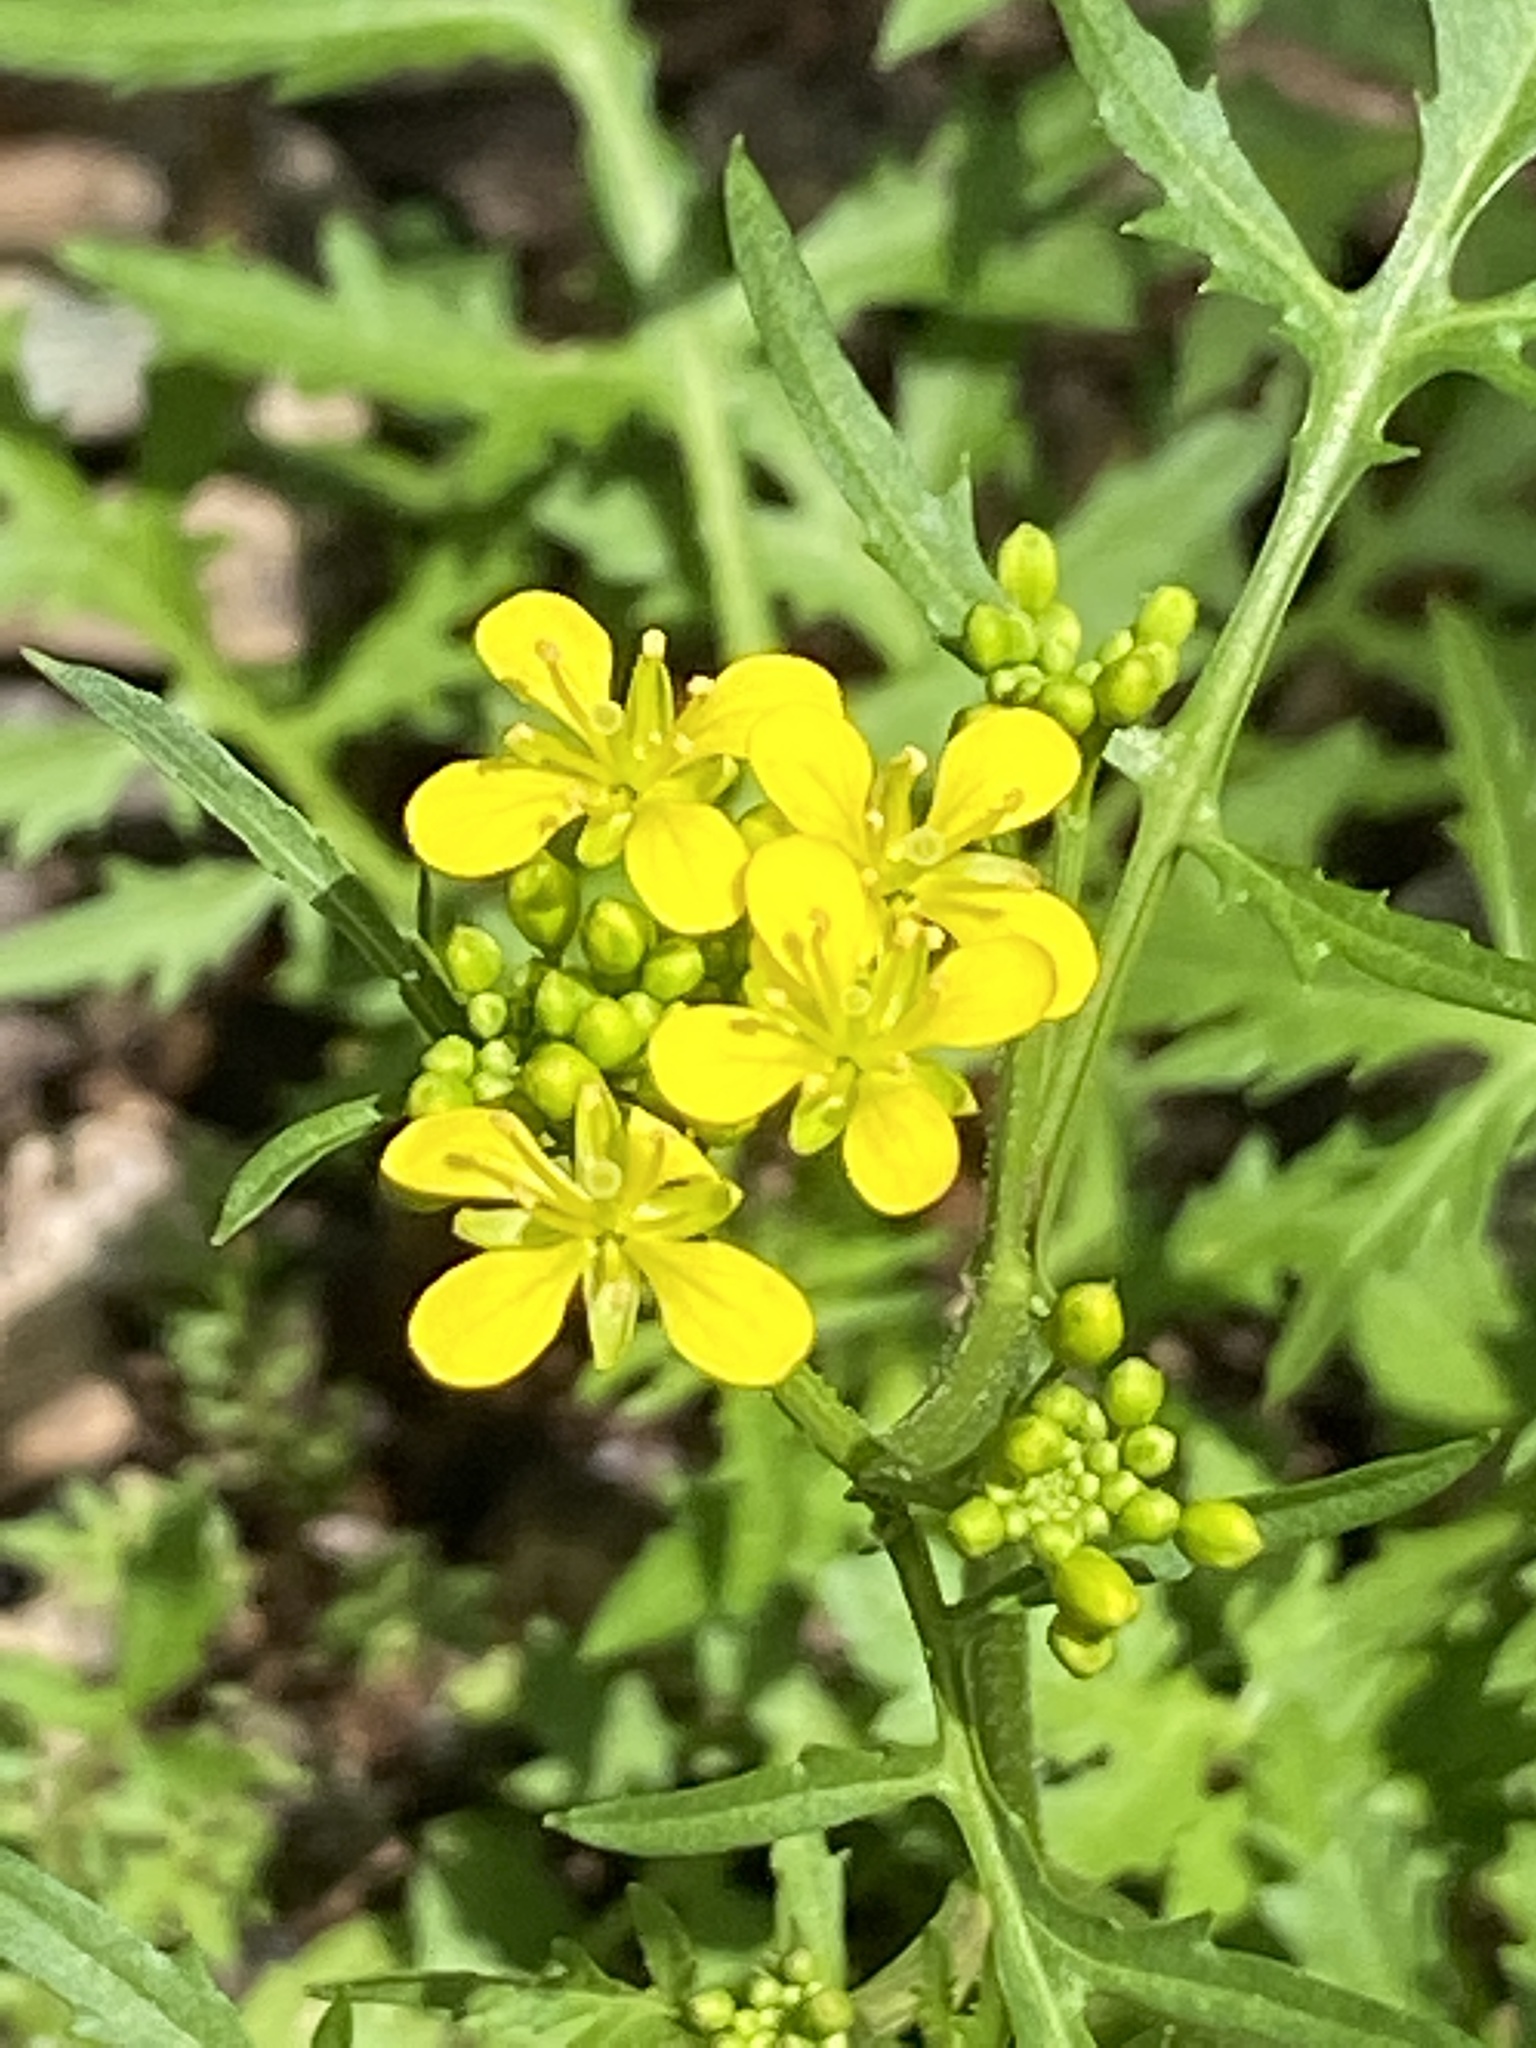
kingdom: Plantae
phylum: Tracheophyta
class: Magnoliopsida
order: Brassicales
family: Brassicaceae
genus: Rorippa
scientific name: Rorippa sylvestris
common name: Creeping yellowcress
